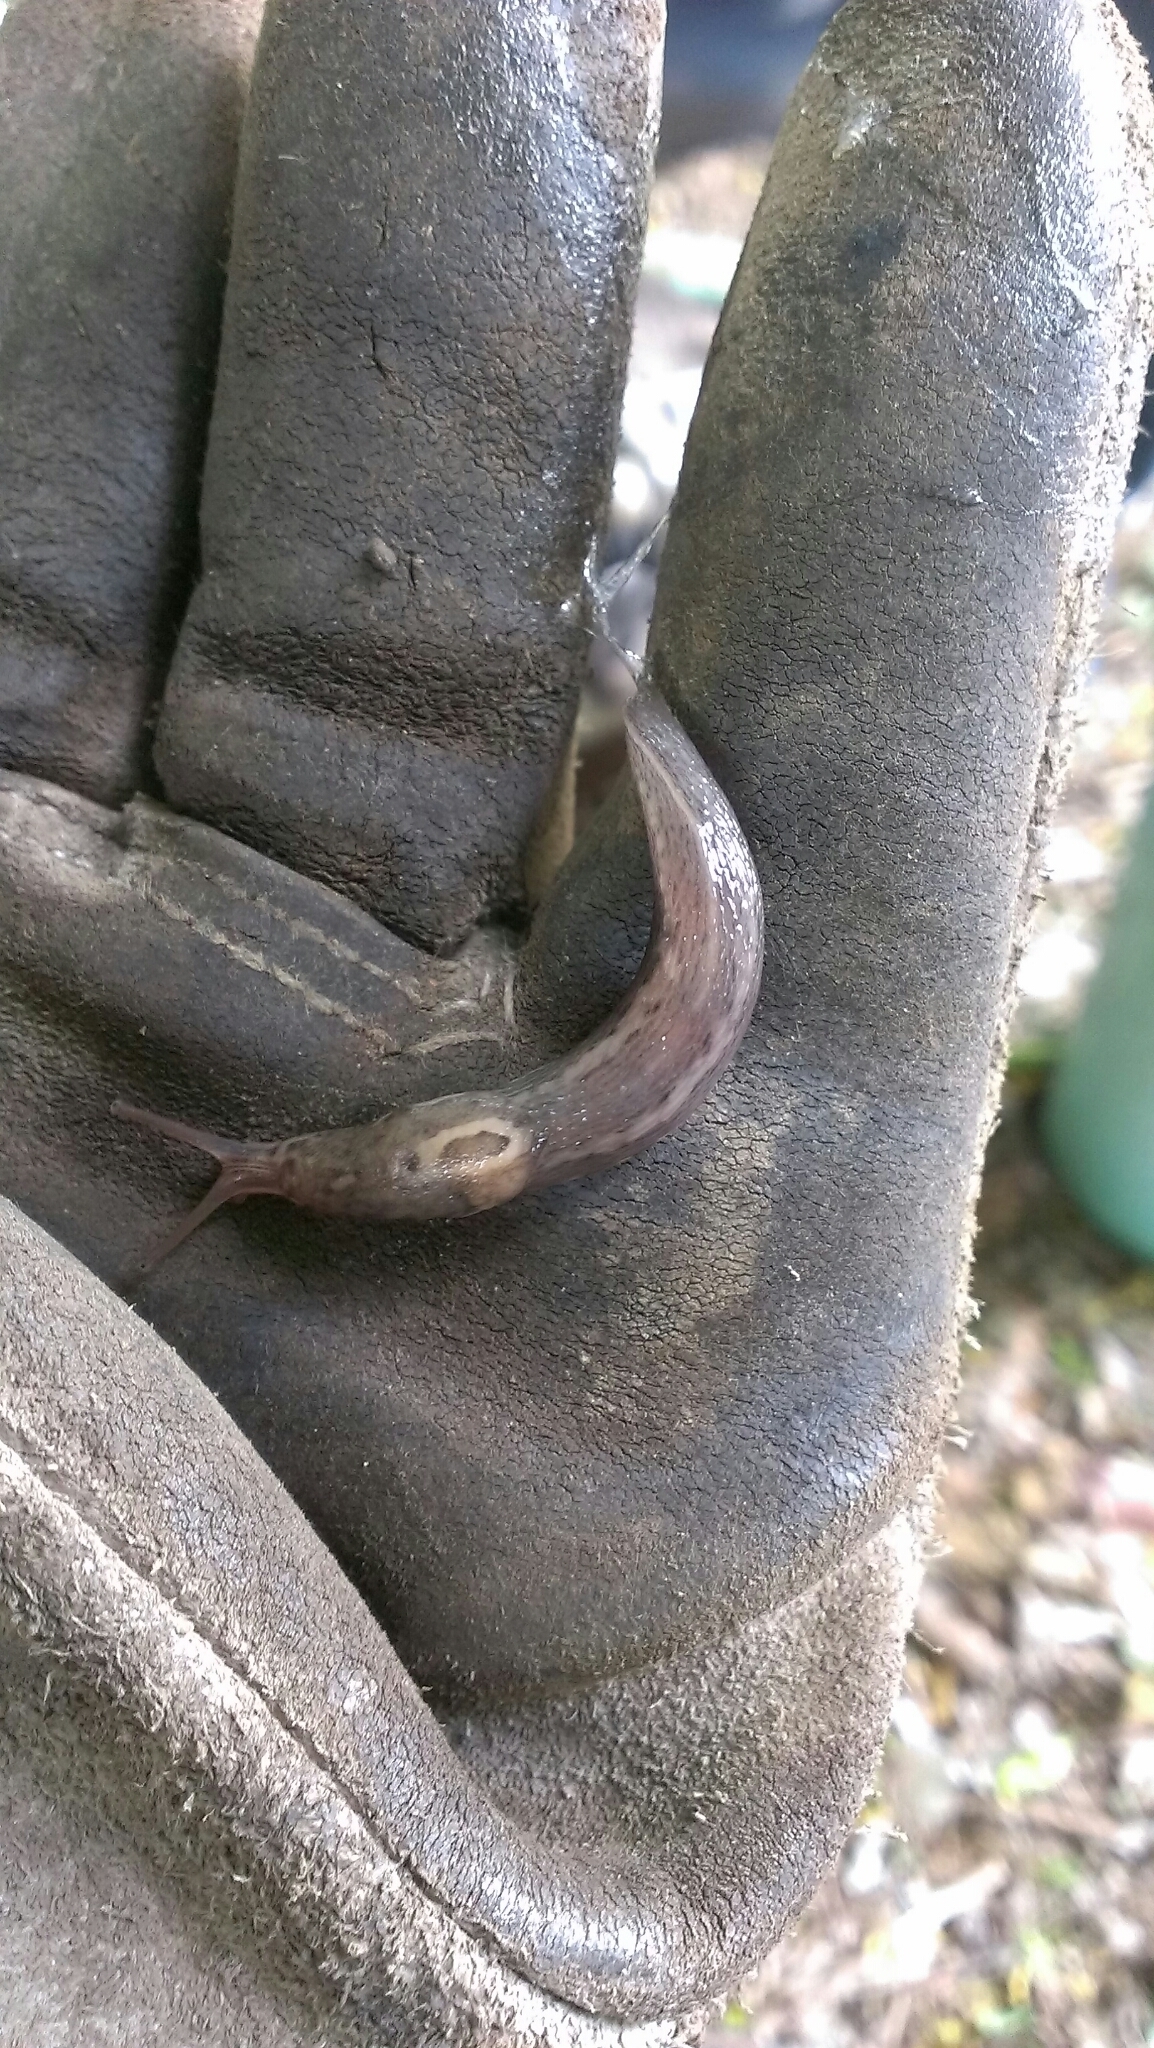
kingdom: Animalia
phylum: Mollusca
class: Gastropoda
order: Stylommatophora
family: Limacidae
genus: Limax
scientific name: Limax maximus
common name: Great grey slug
